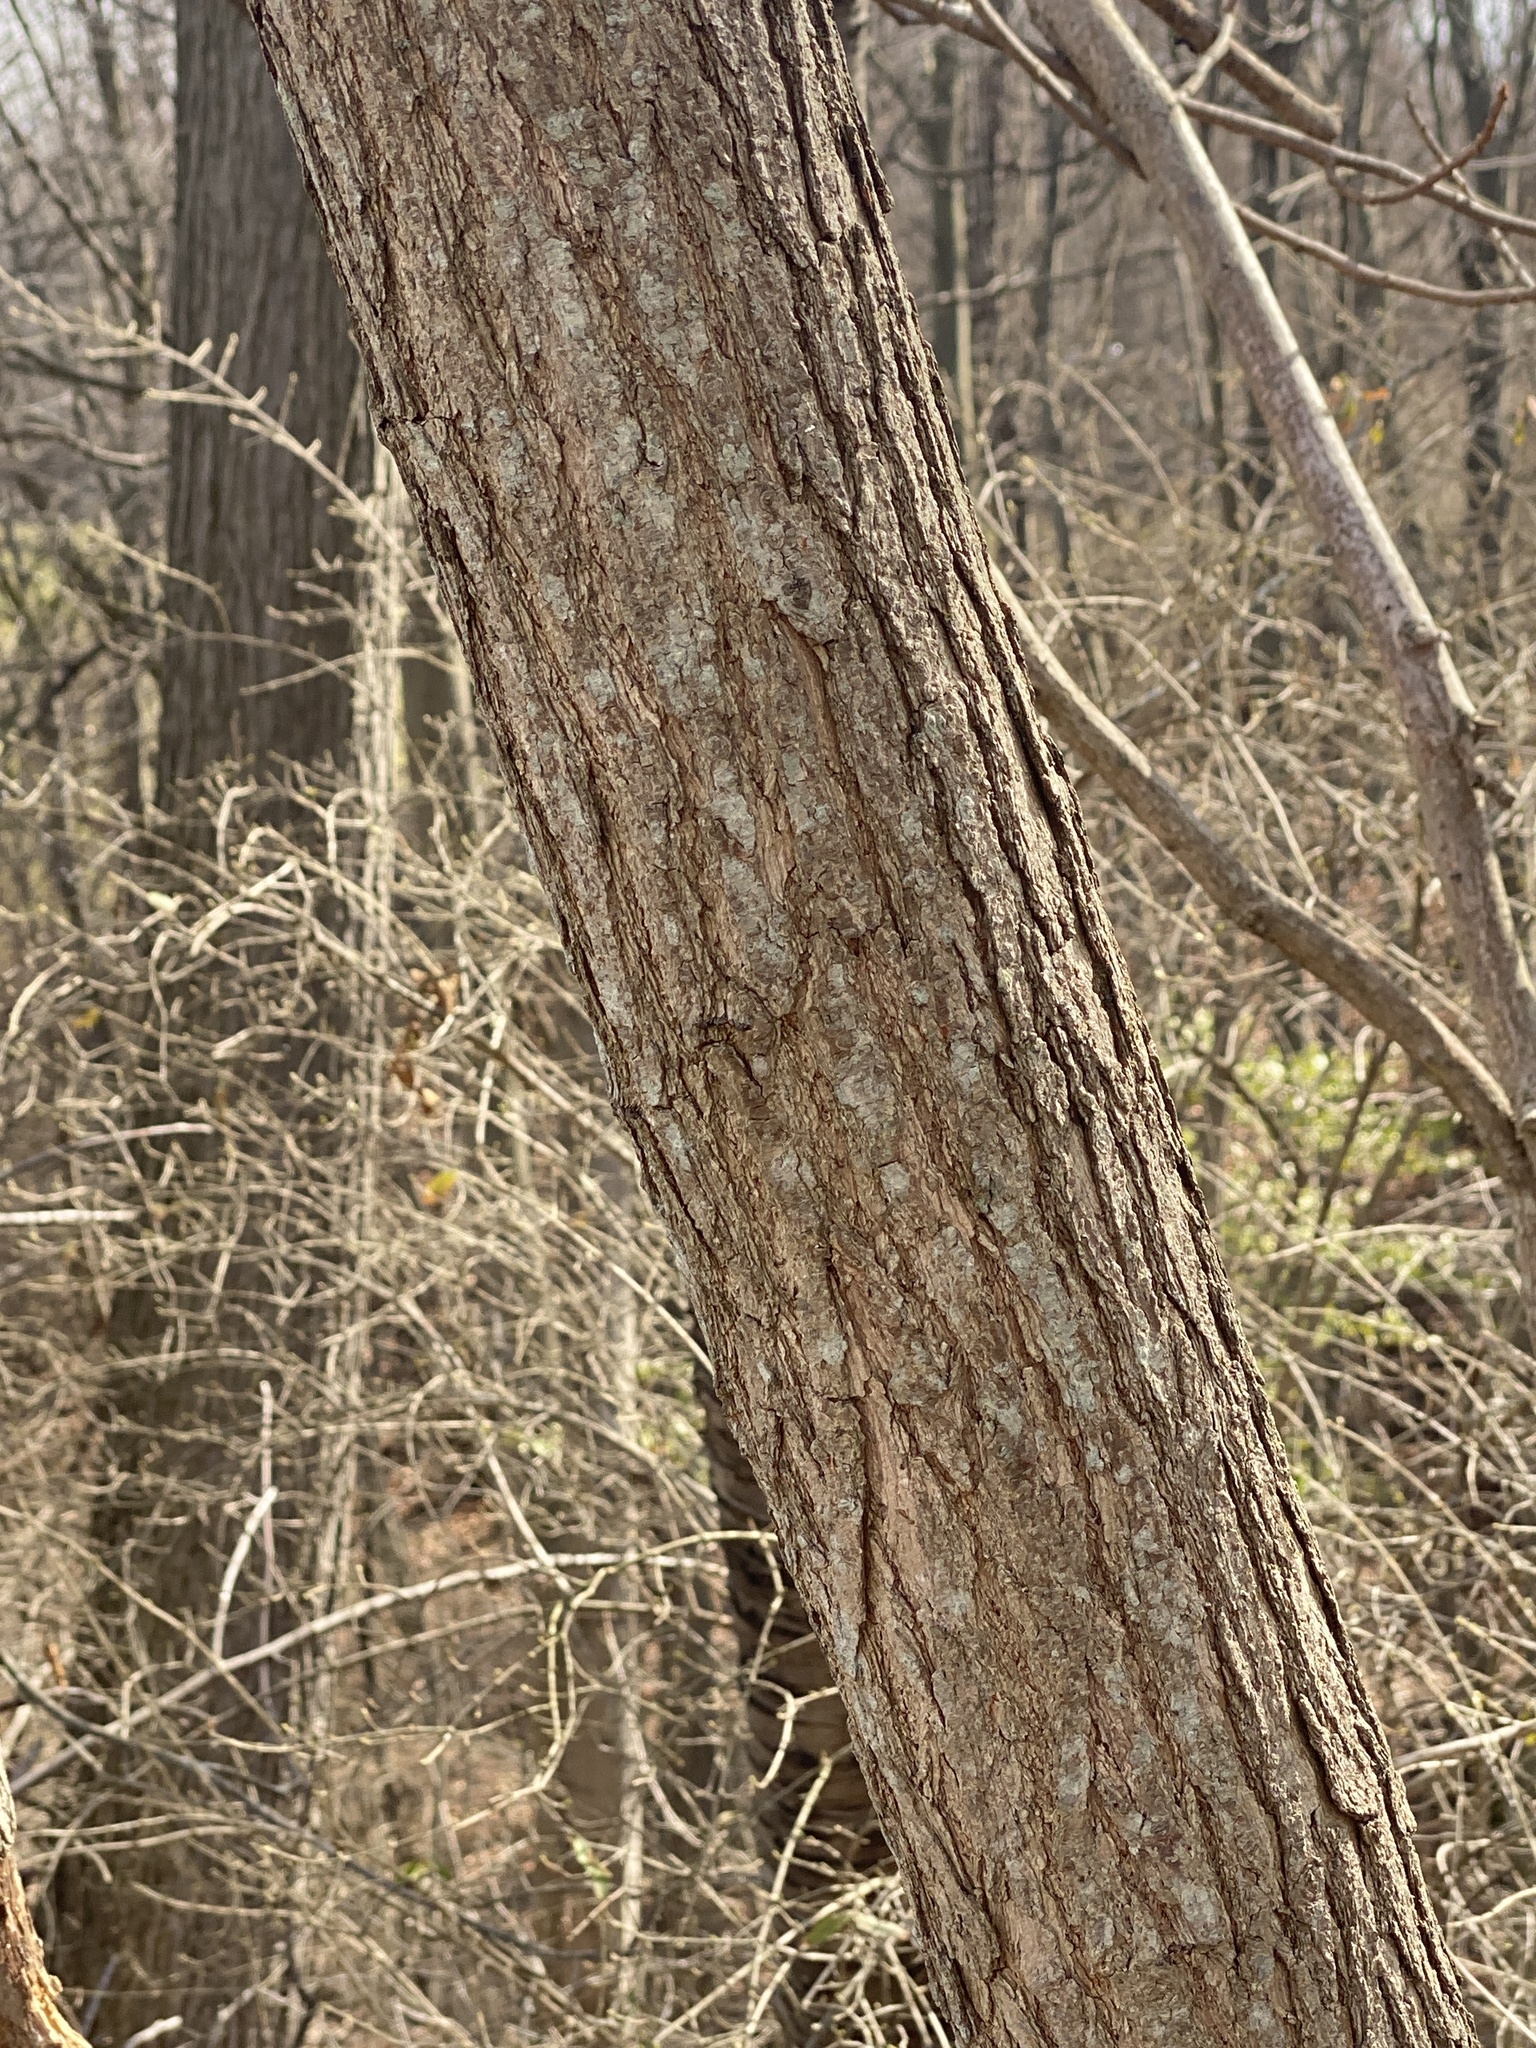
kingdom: Plantae
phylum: Tracheophyta
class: Magnoliopsida
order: Laurales
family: Lauraceae
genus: Sassafras
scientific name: Sassafras albidum
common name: Sassafras
